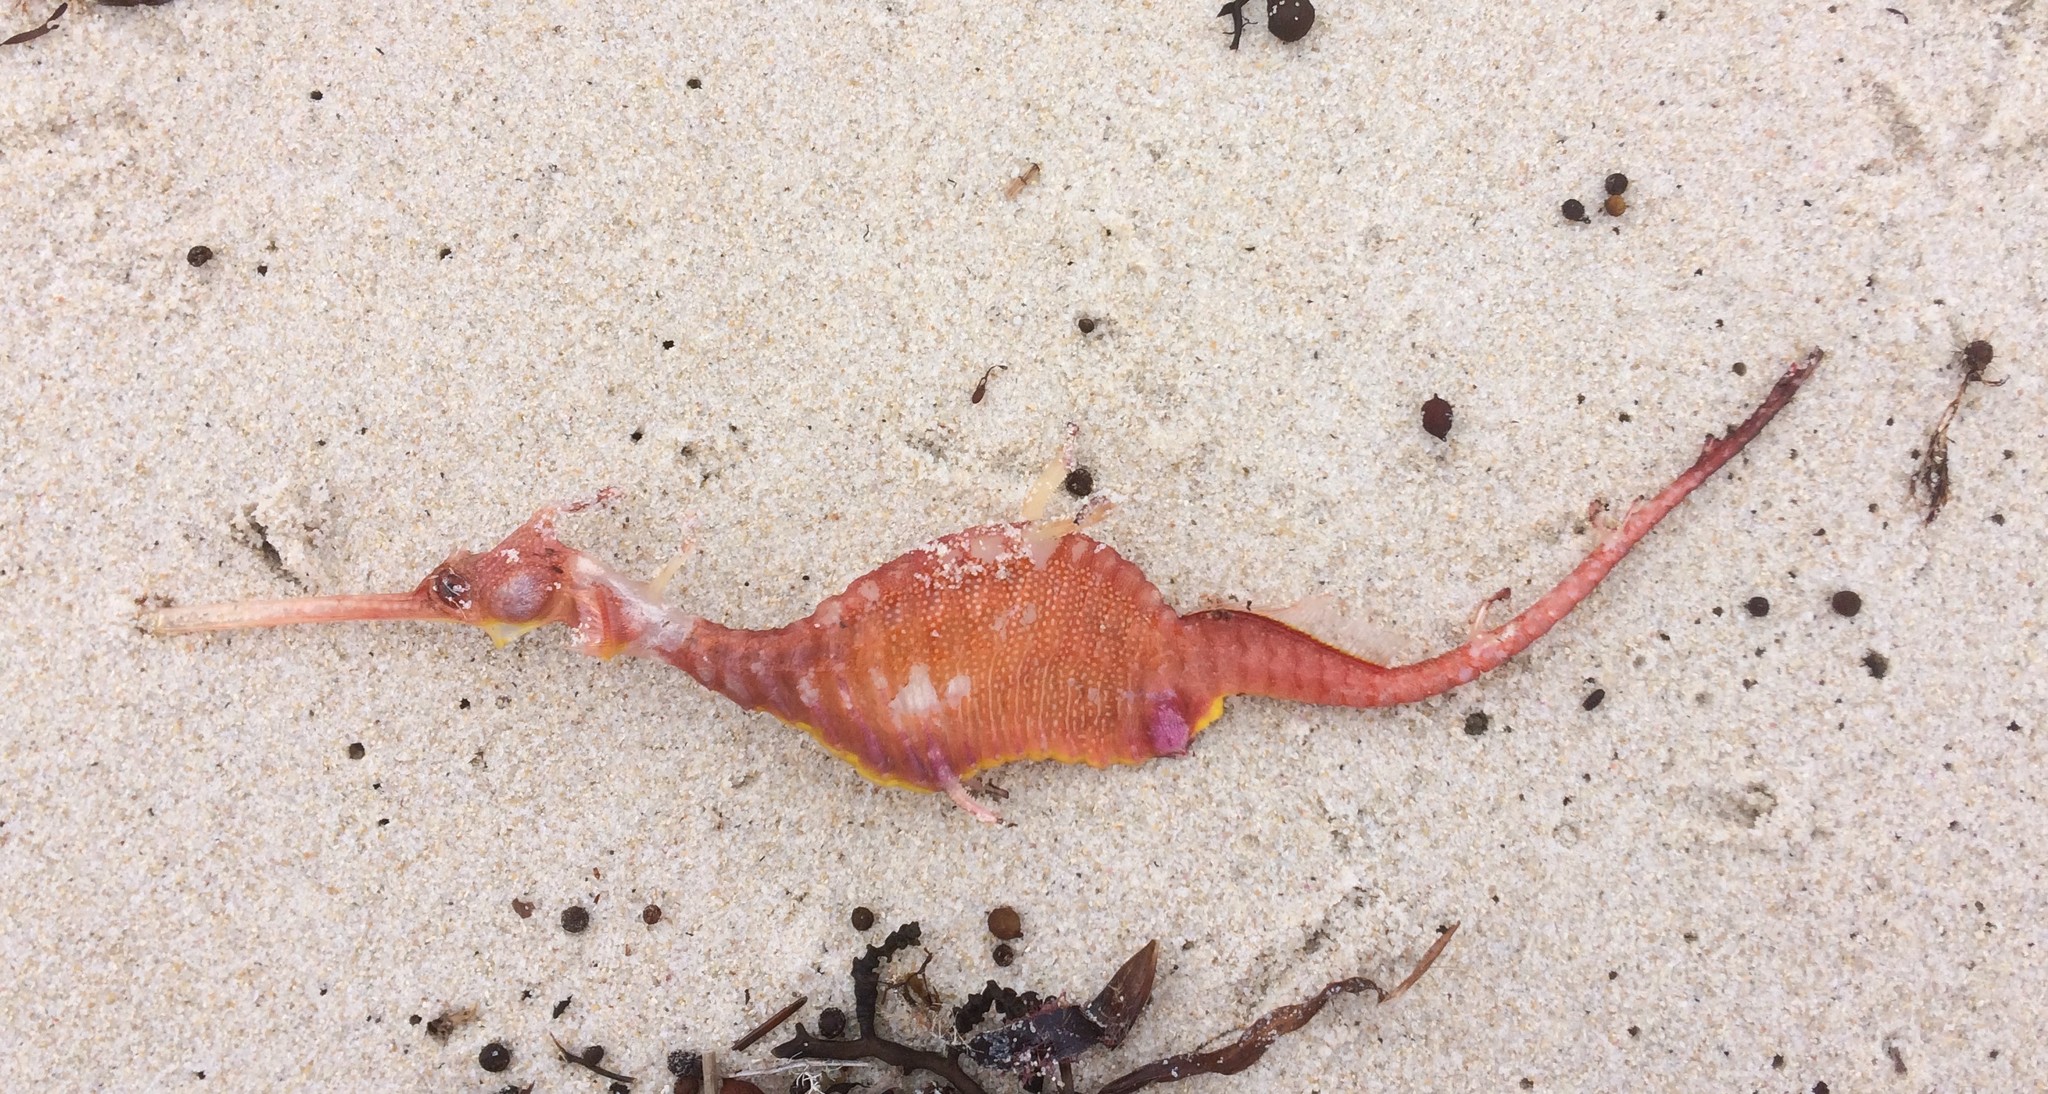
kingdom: Animalia
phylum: Chordata
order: Syngnathiformes
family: Syngnathidae
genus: Phyllopteryx
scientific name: Phyllopteryx taeniolatus
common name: Common seadragon
